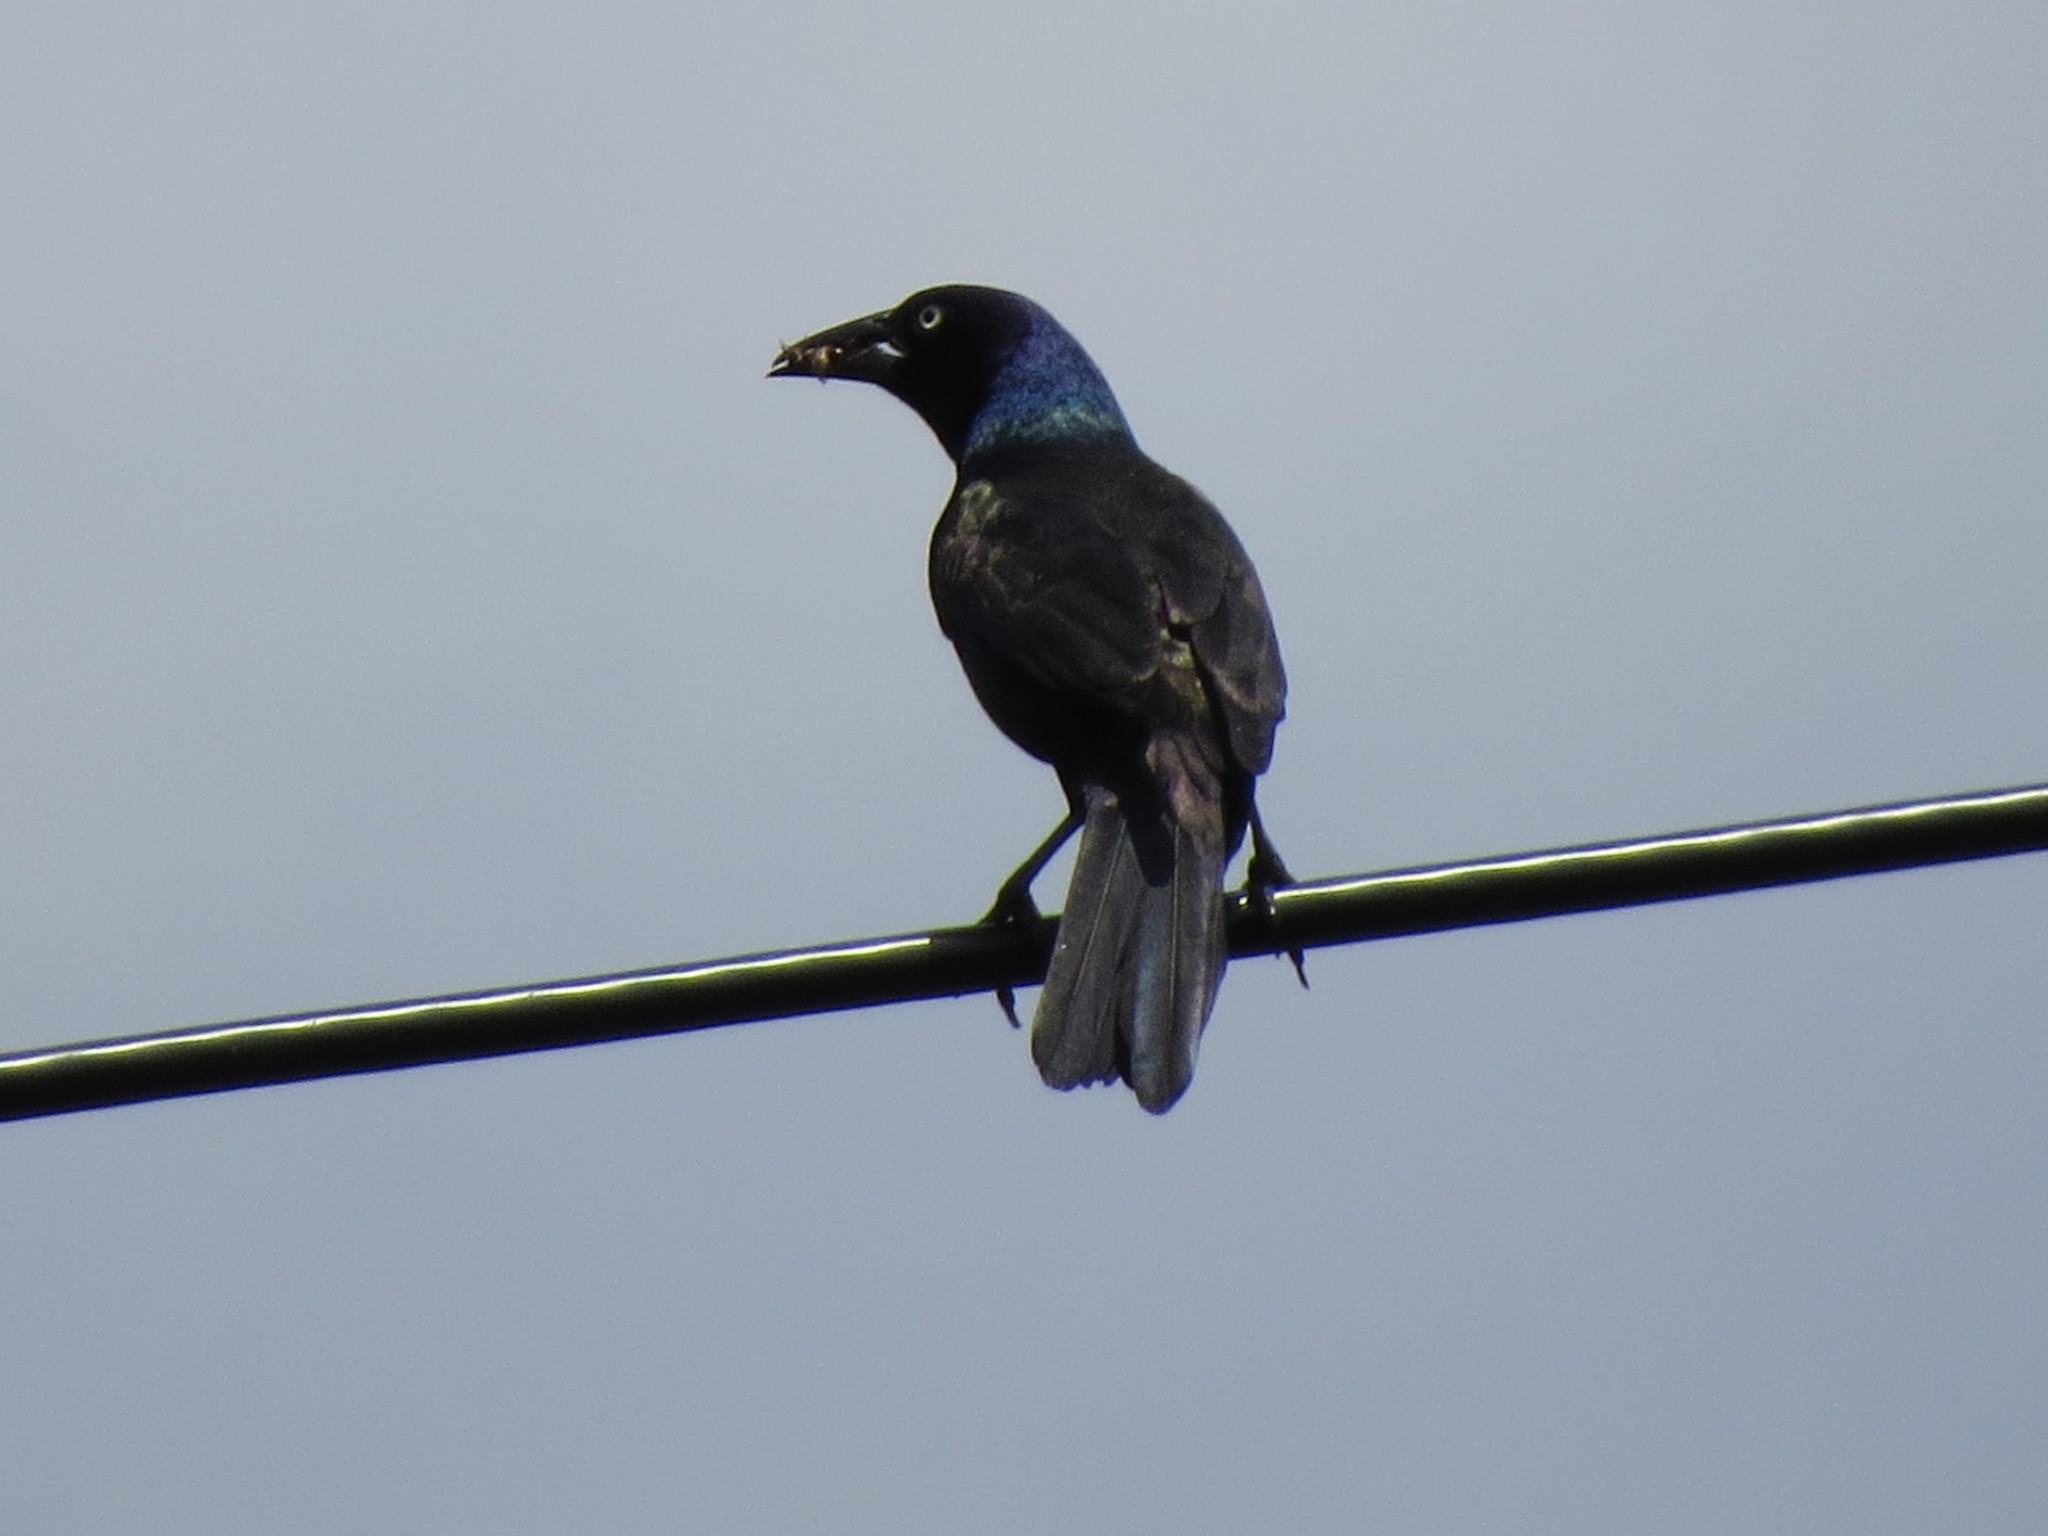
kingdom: Animalia
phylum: Chordata
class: Aves
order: Passeriformes
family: Icteridae
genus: Quiscalus
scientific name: Quiscalus quiscula
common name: Common grackle
